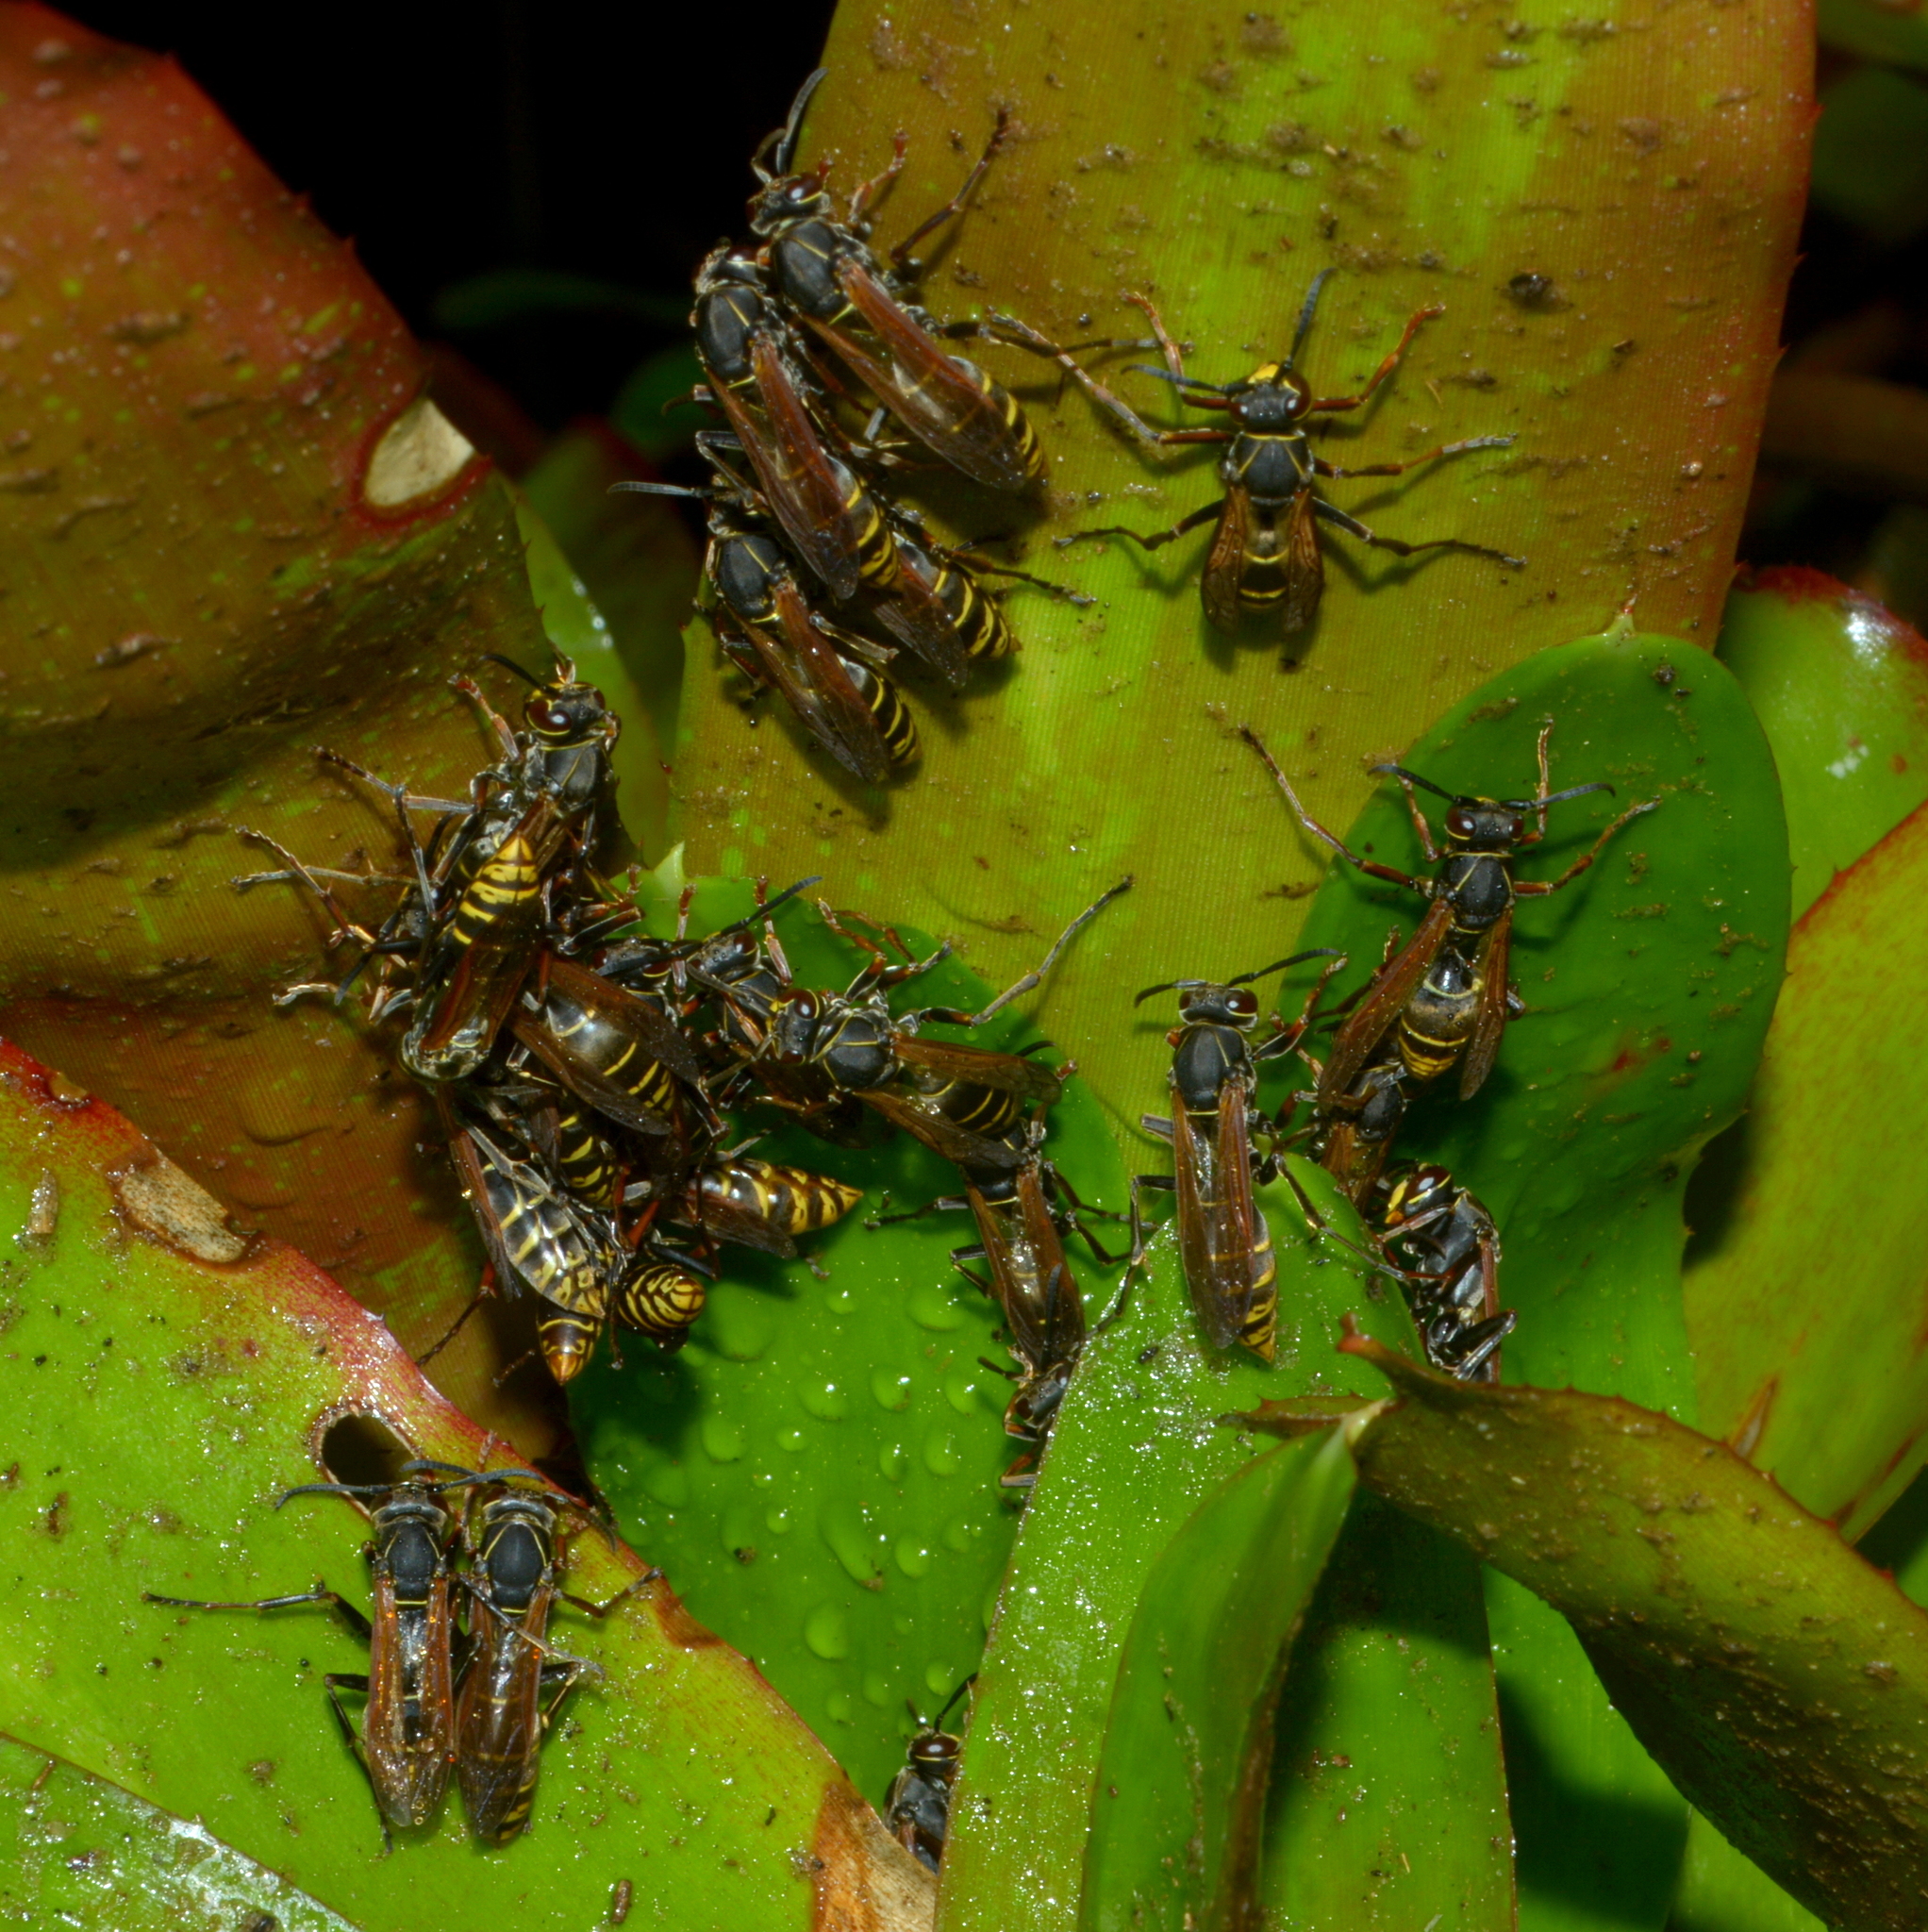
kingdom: Animalia
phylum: Arthropoda
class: Insecta
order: Hymenoptera
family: Eumenidae
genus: Polistes
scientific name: Polistes cinerascens
